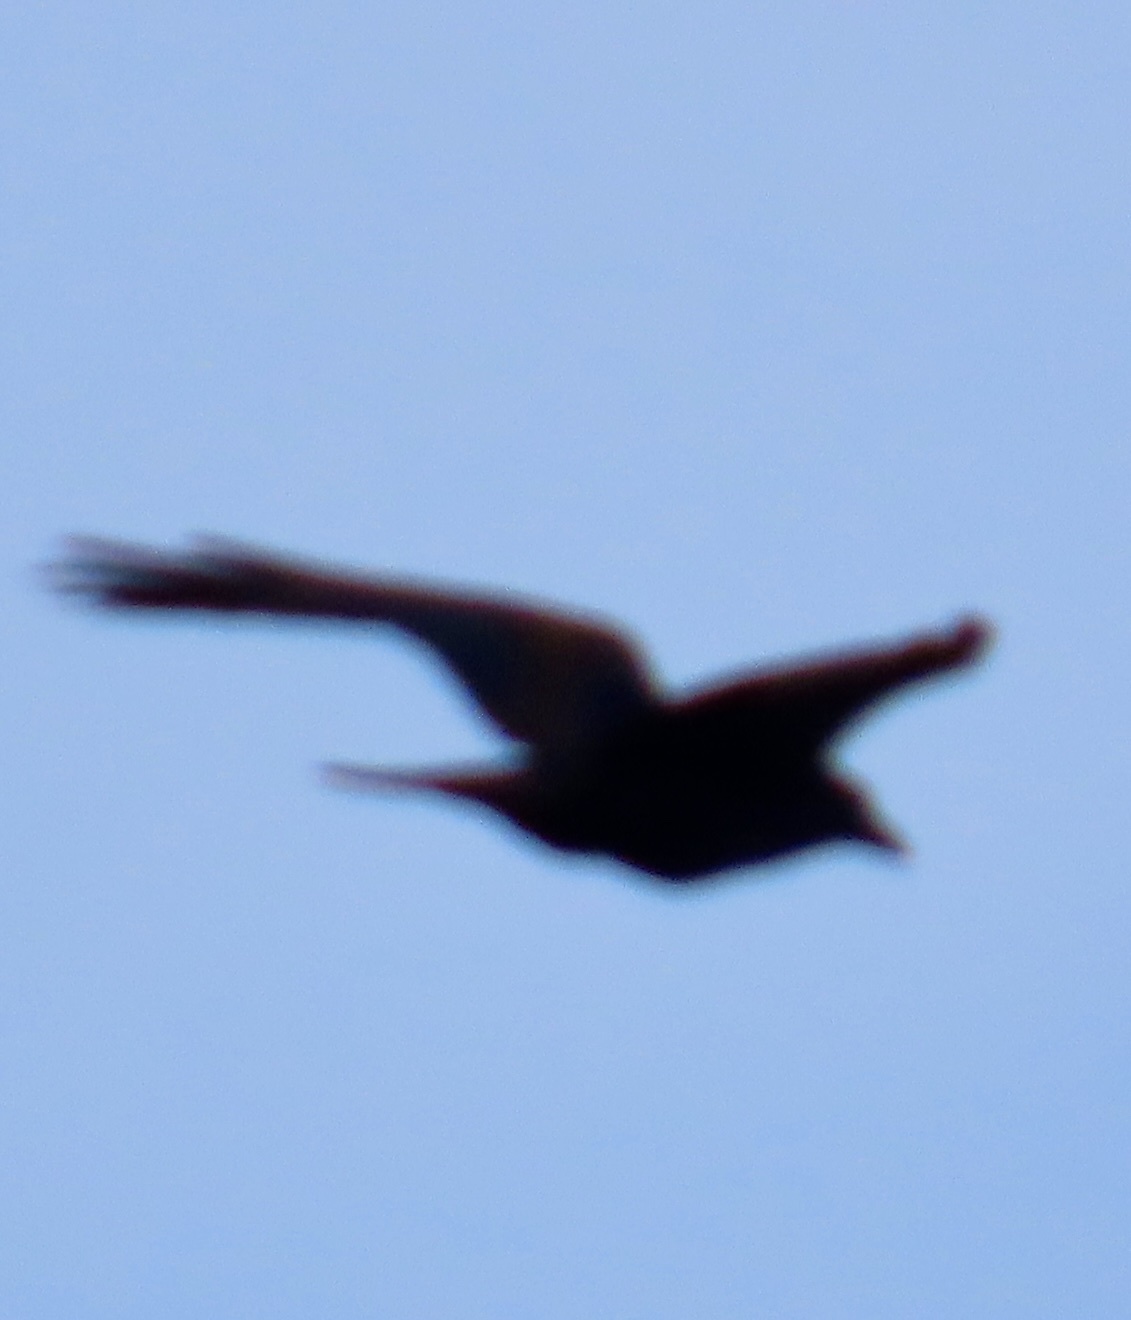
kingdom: Animalia
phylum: Chordata
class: Aves
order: Passeriformes
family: Corvidae
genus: Corvus
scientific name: Corvus corax
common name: Common raven
